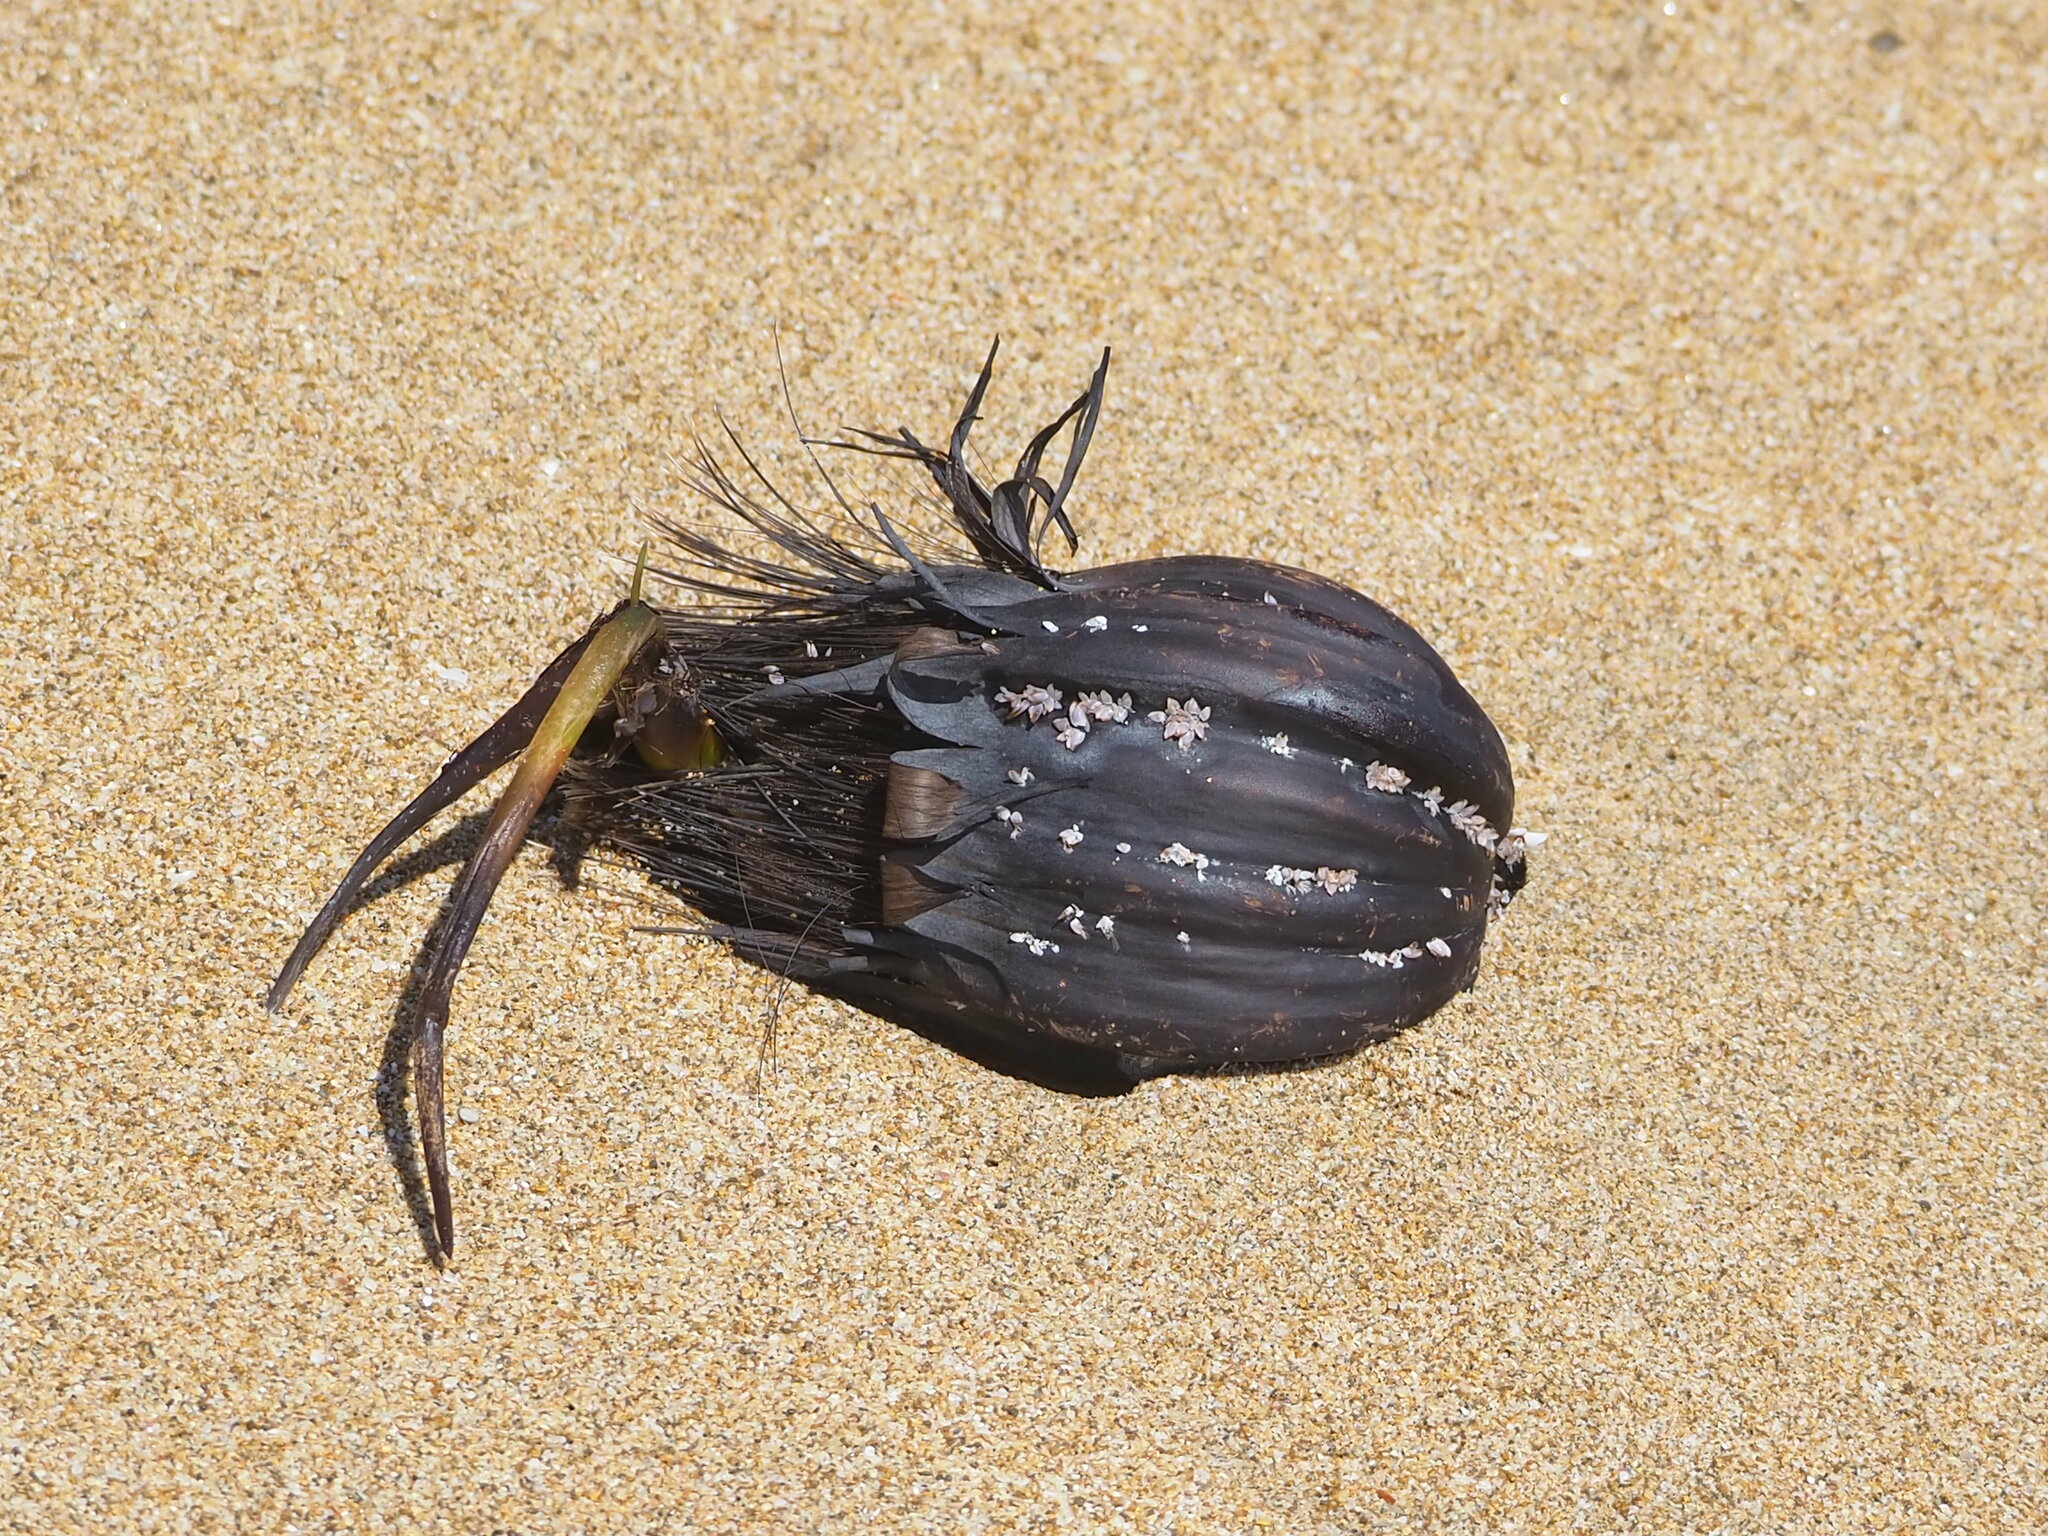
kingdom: Plantae
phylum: Tracheophyta
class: Liliopsida
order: Arecales
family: Arecaceae
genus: Nypa
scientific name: Nypa fruticans
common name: Mangrove palm
